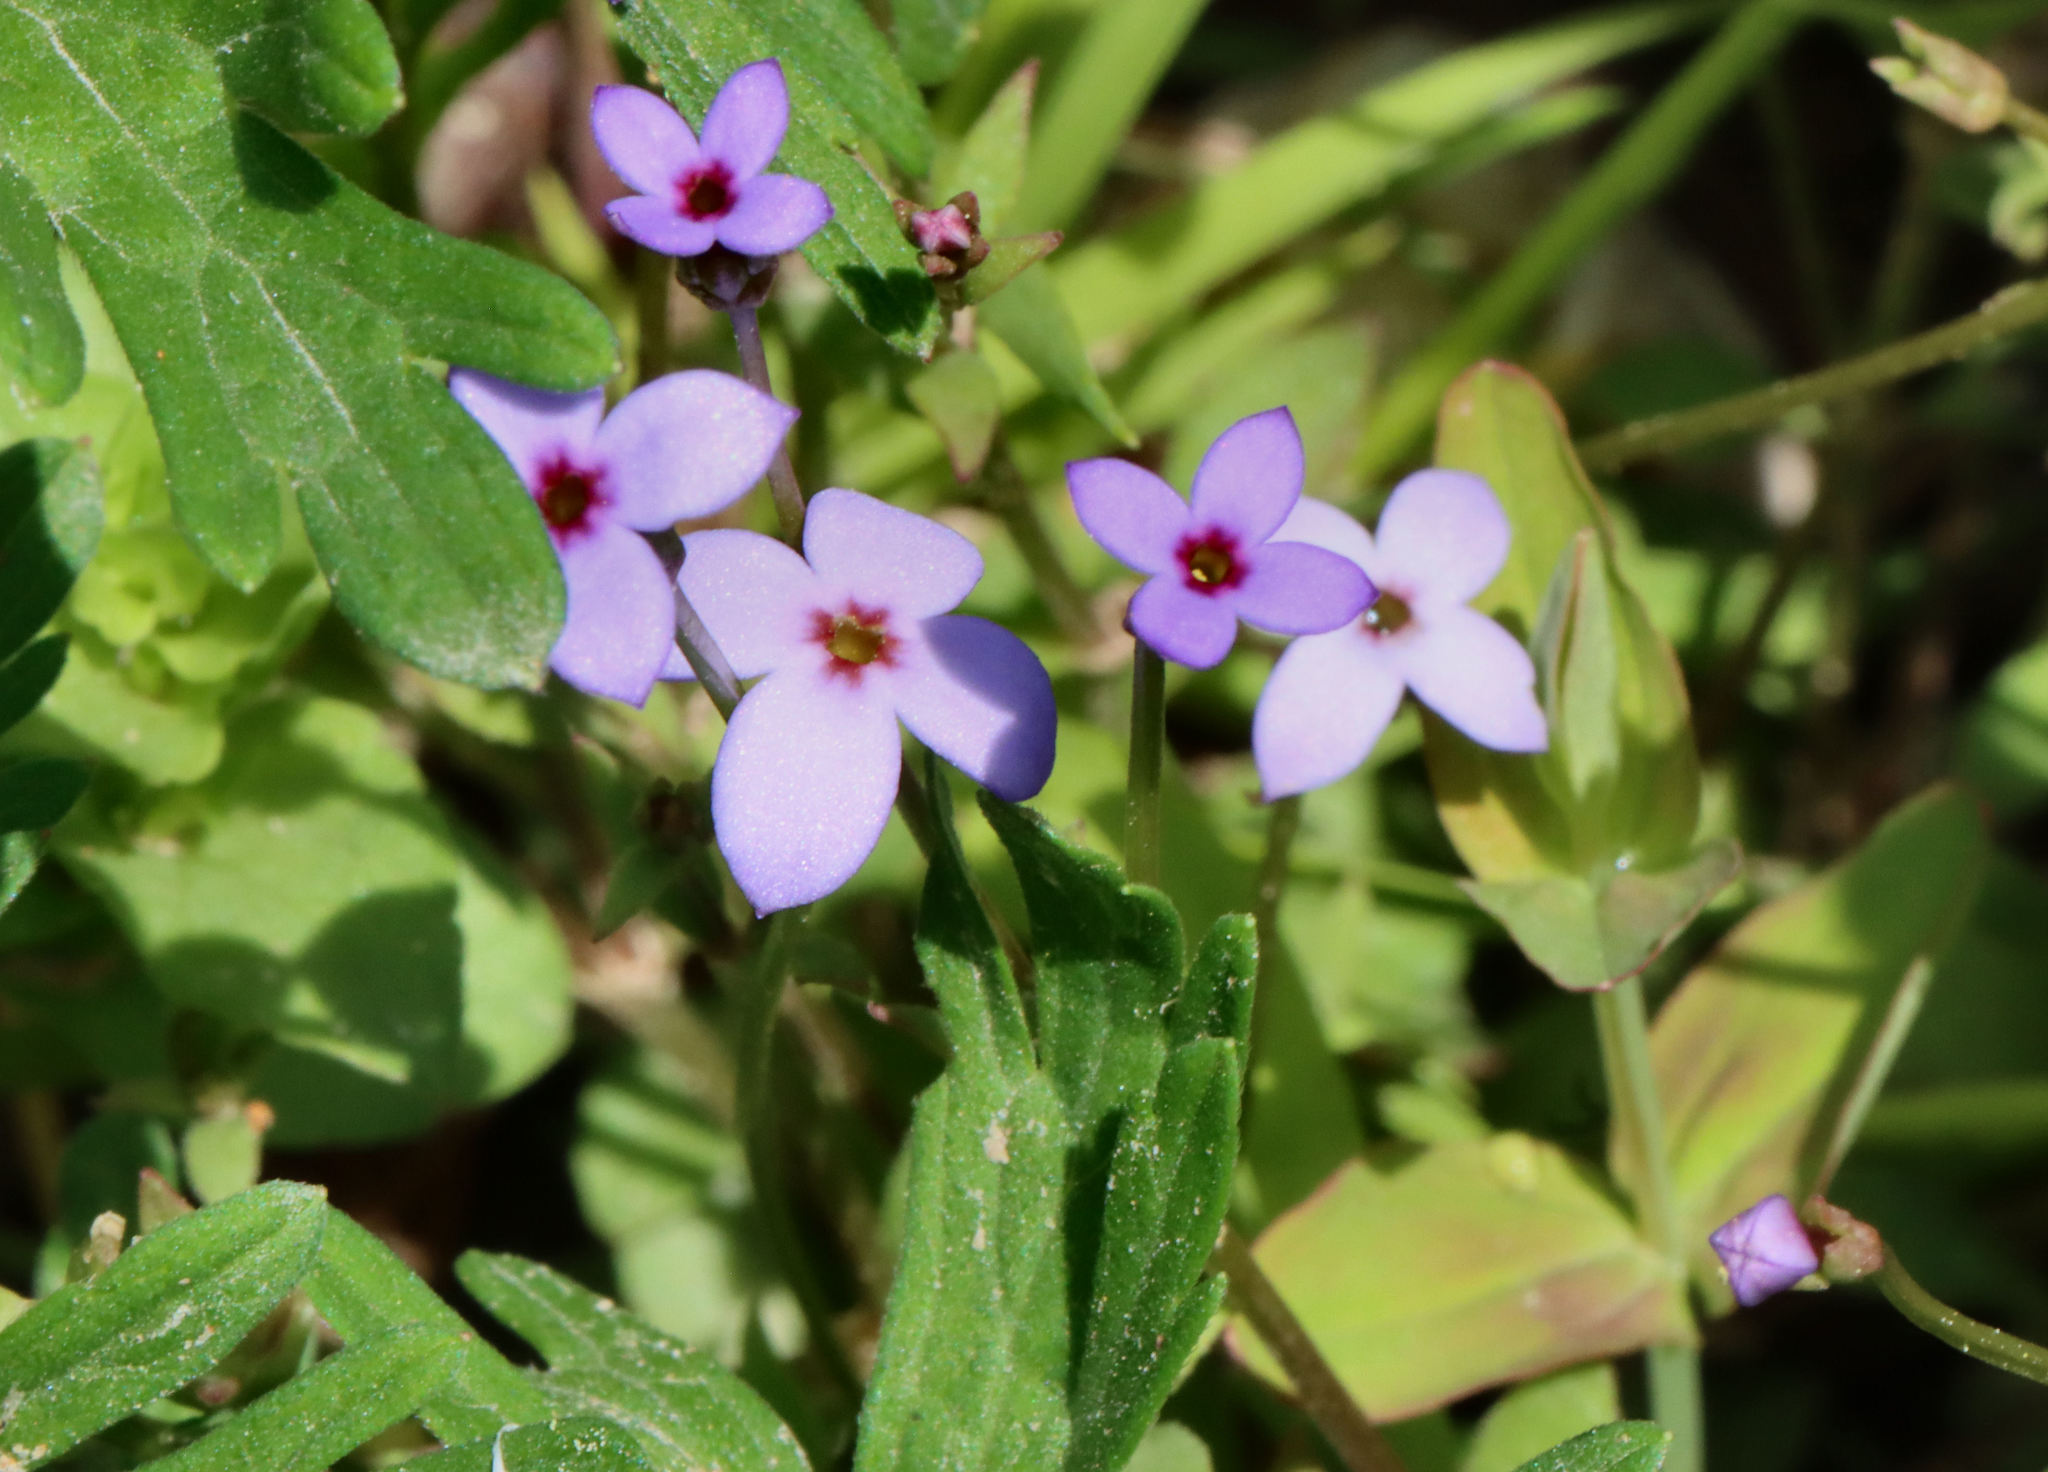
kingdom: Plantae
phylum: Tracheophyta
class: Magnoliopsida
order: Gentianales
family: Rubiaceae
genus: Houstonia
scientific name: Houstonia pusilla
